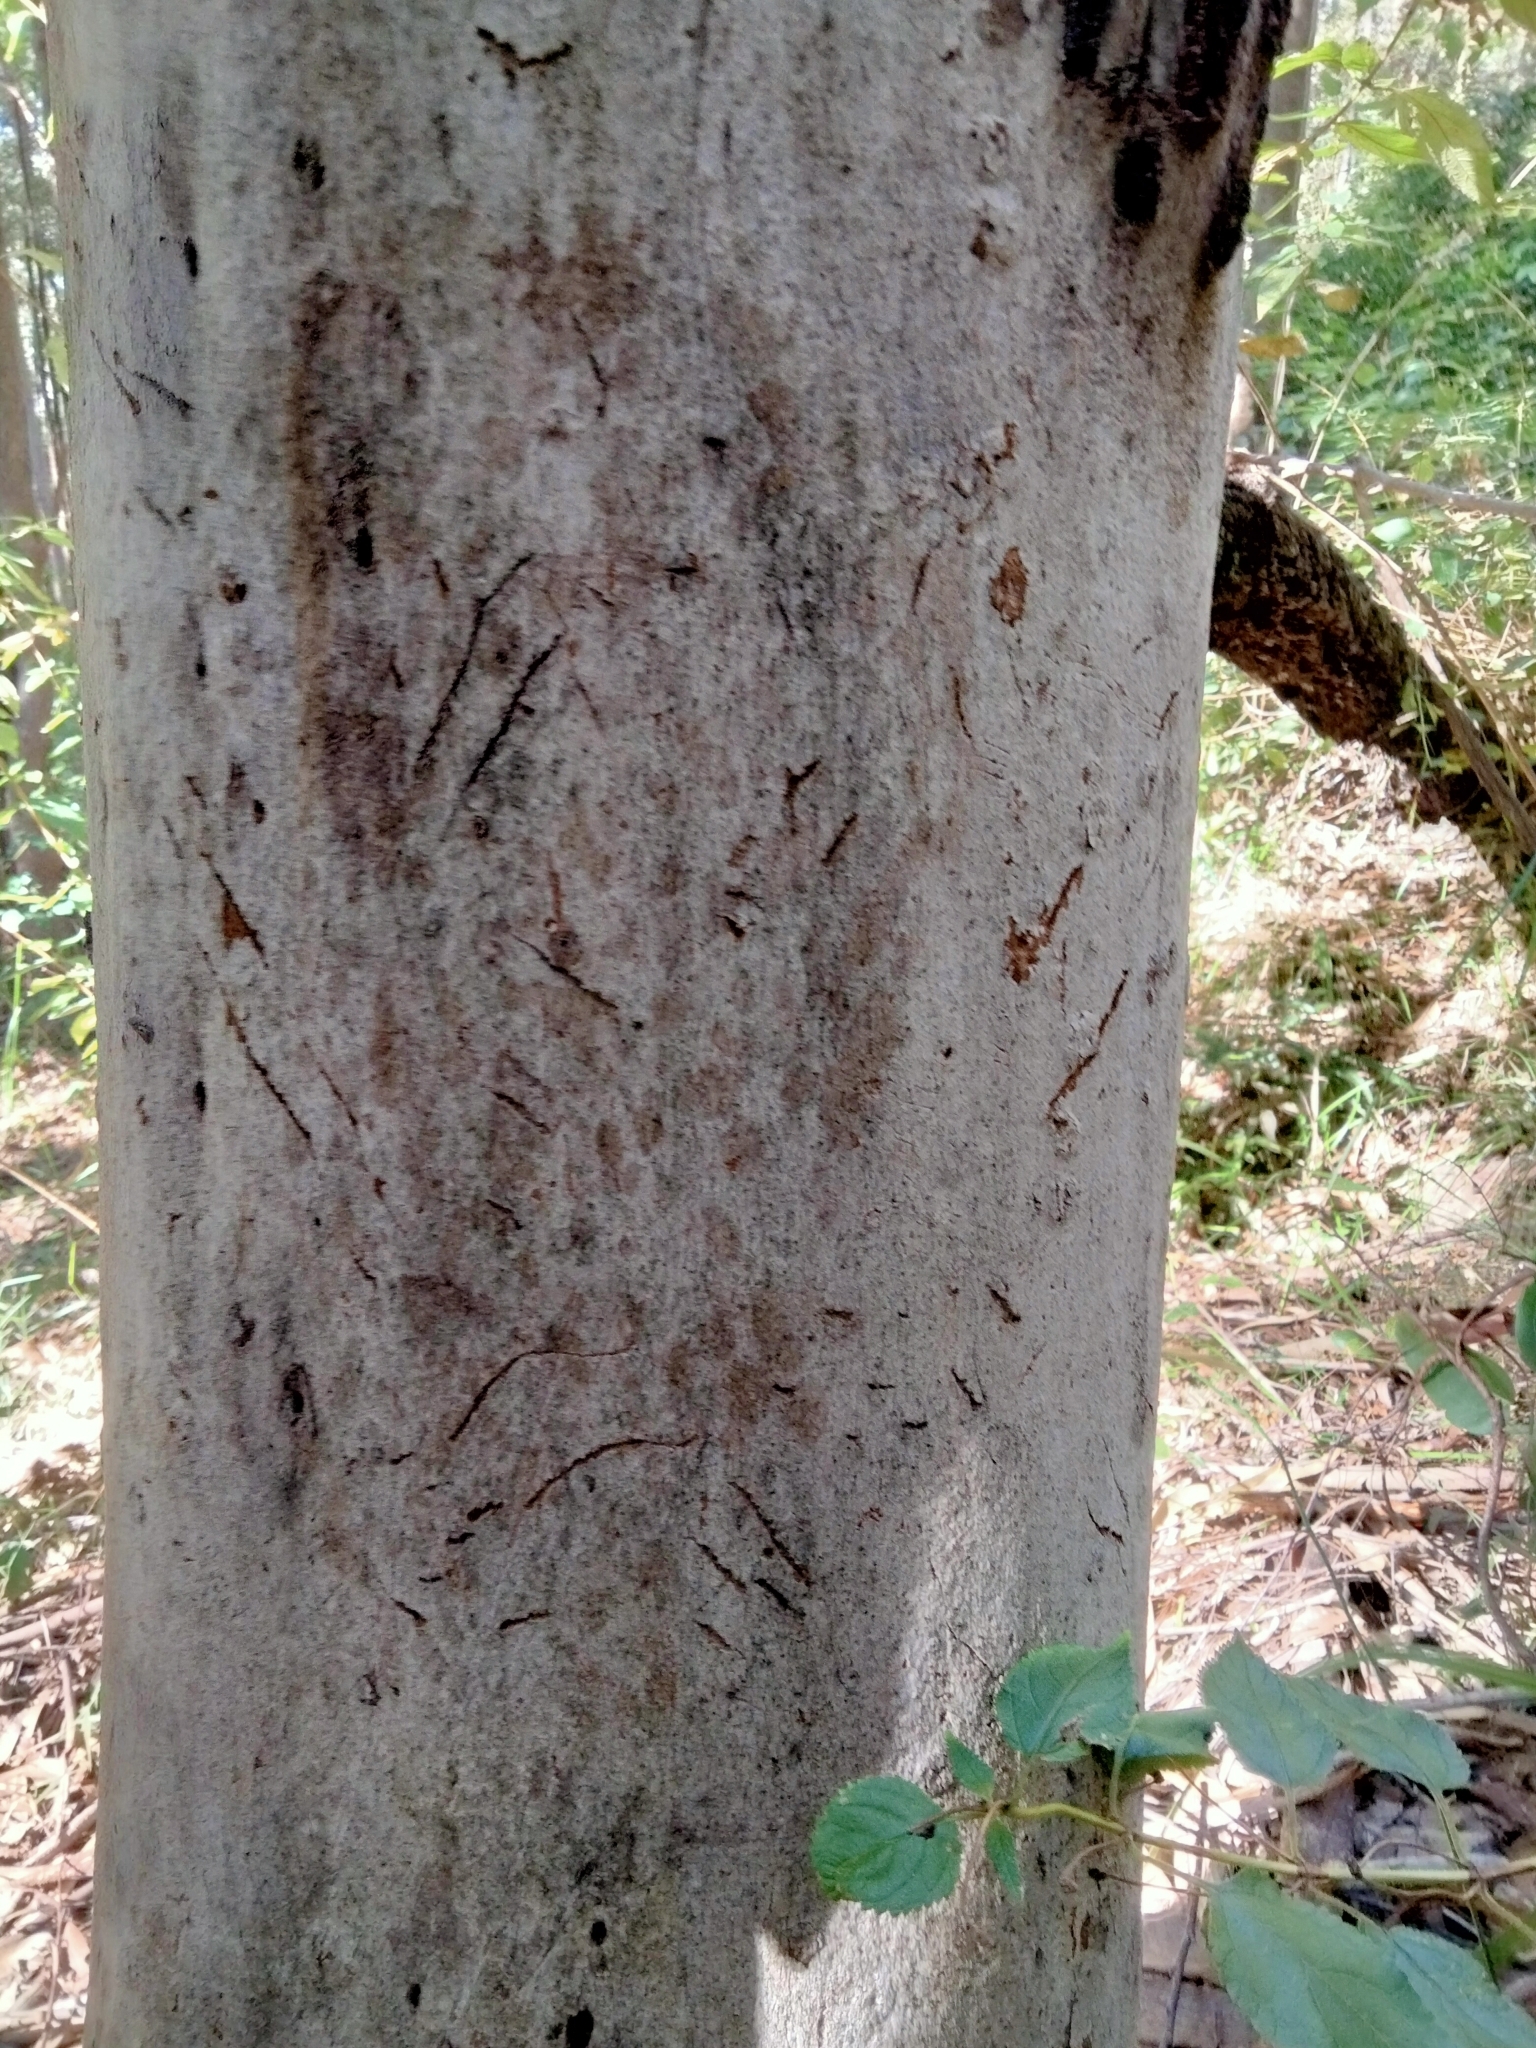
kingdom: Animalia
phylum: Chordata
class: Mammalia
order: Diprotodontia
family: Phascolarctidae
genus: Phascolarctos
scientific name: Phascolarctos cinereus
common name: Koala
